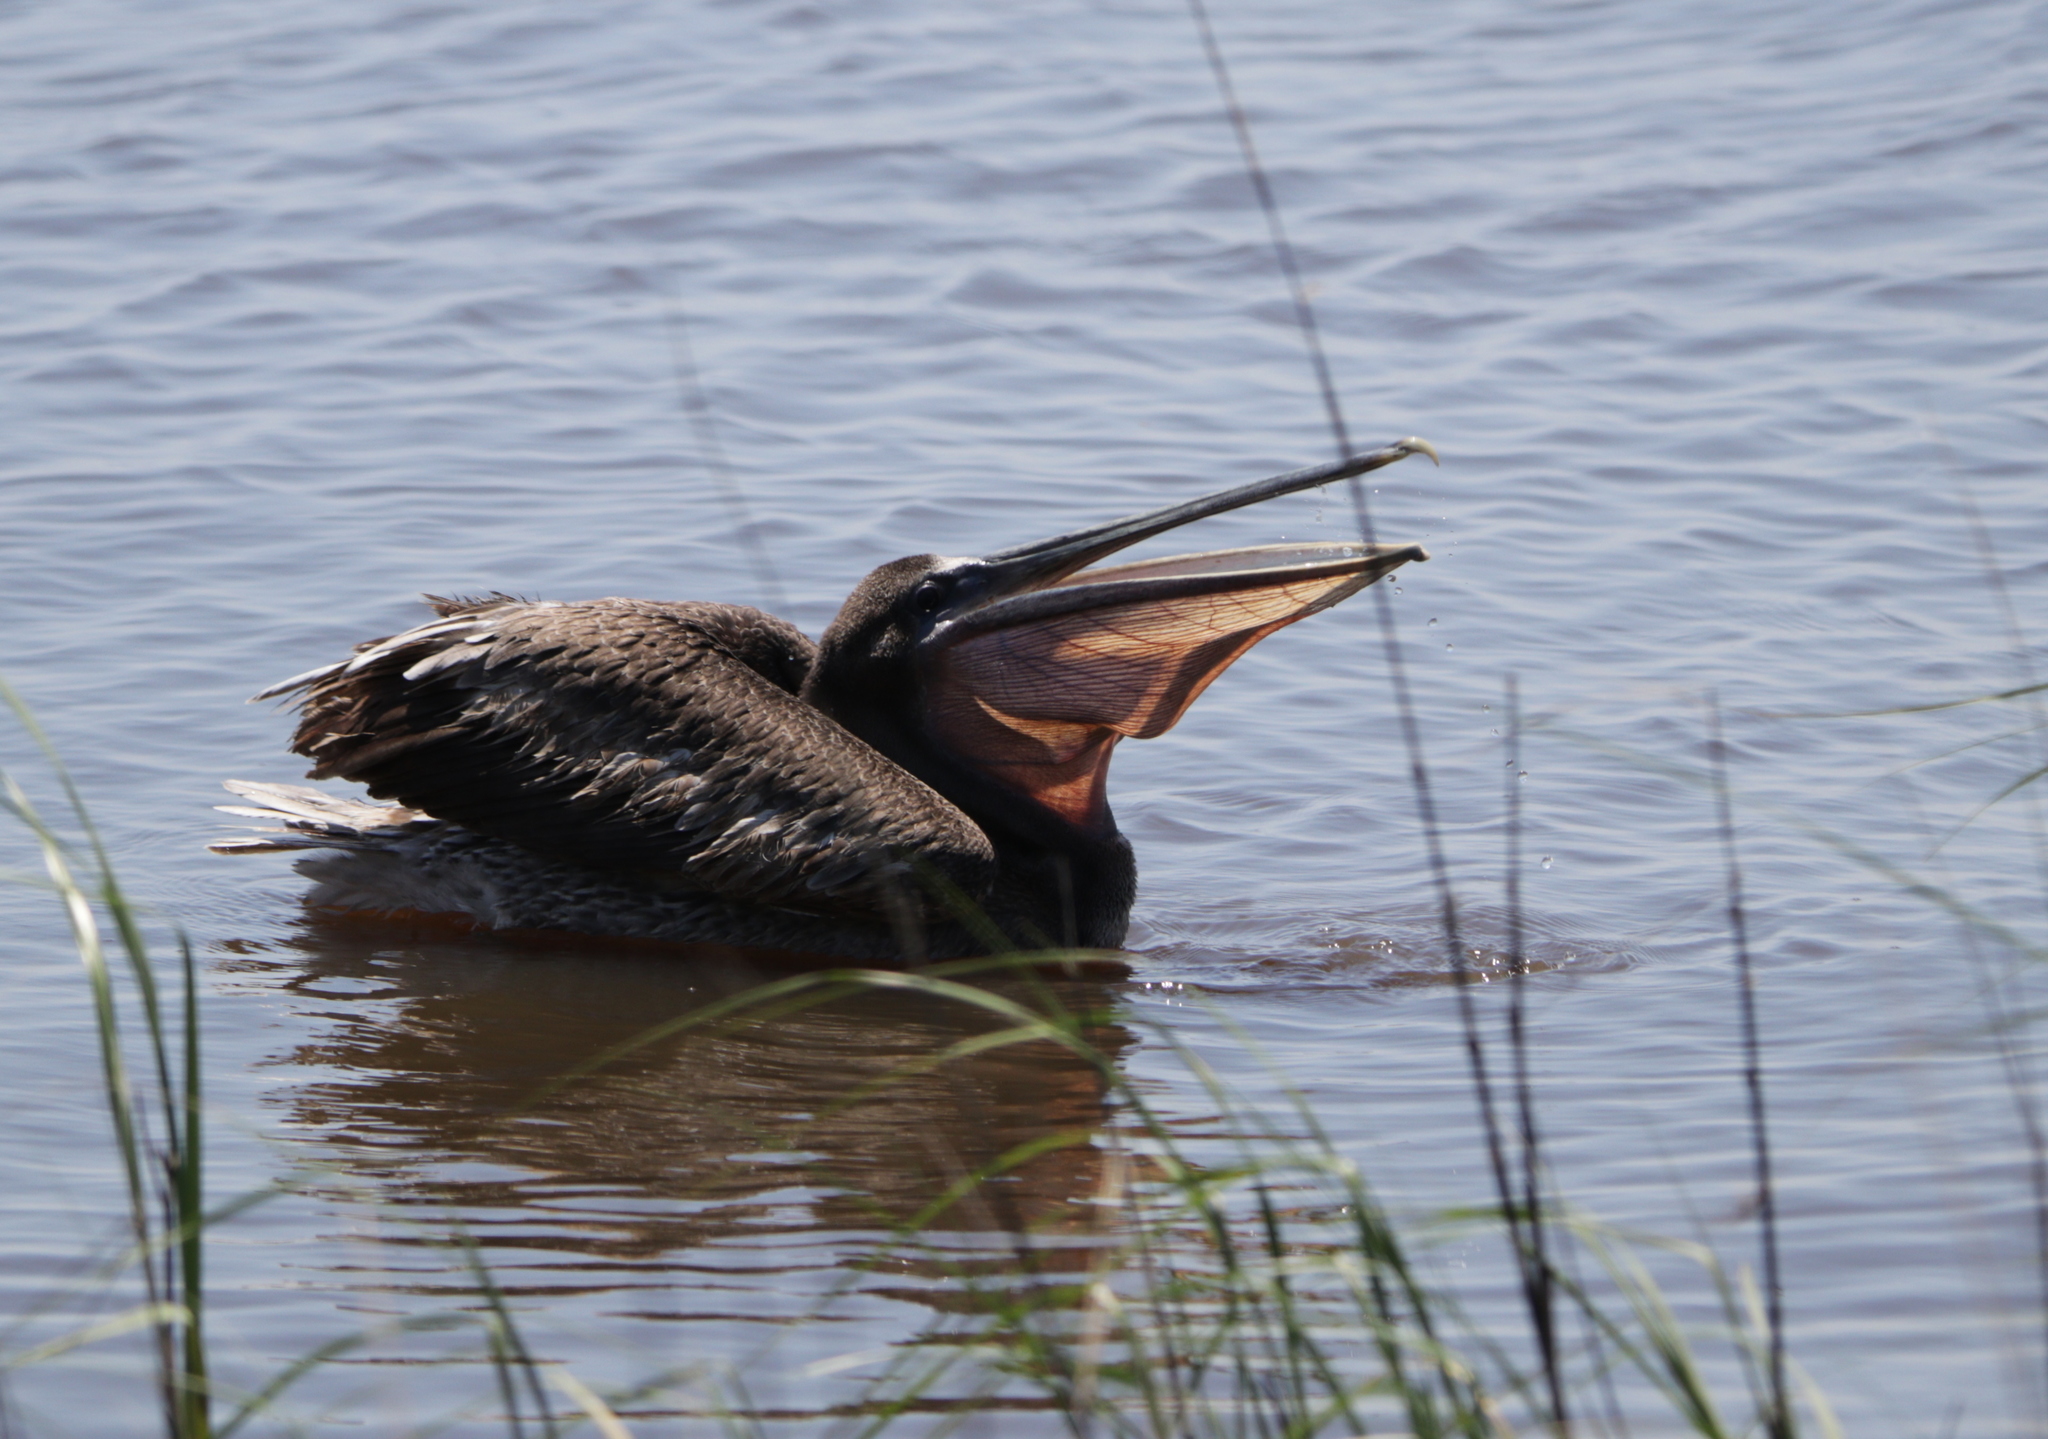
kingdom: Animalia
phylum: Chordata
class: Aves
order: Pelecaniformes
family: Pelecanidae
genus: Pelecanus
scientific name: Pelecanus occidentalis
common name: Brown pelican
